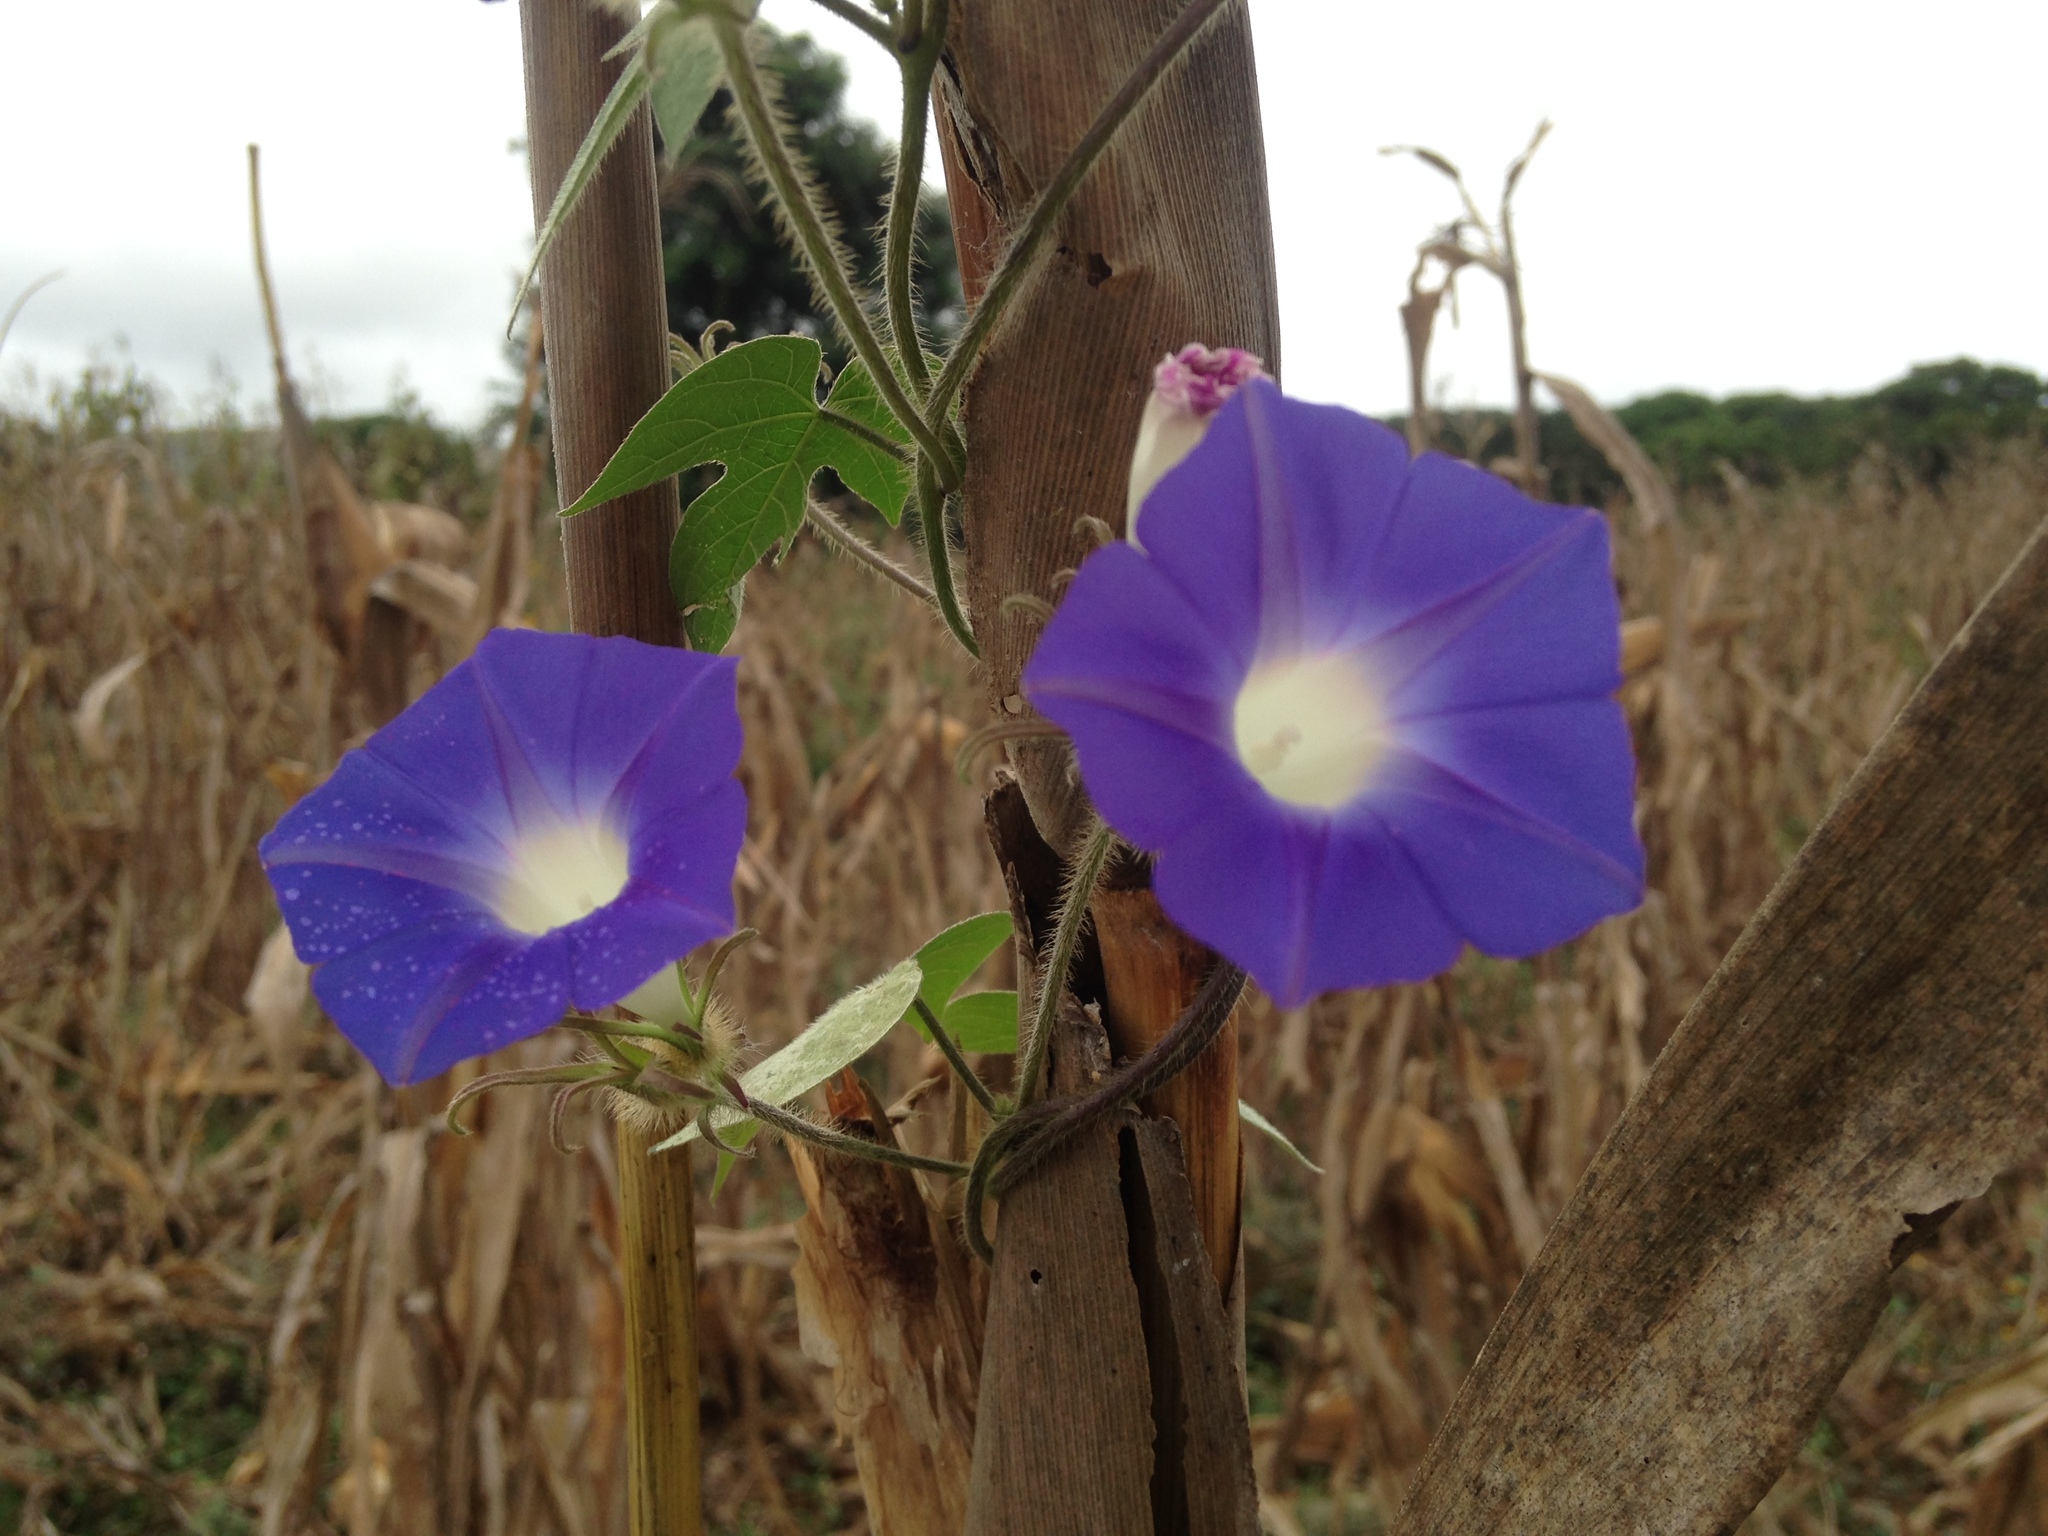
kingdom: Plantae
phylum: Tracheophyta
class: Magnoliopsida
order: Solanales
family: Convolvulaceae
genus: Ipomoea
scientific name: Ipomoea hederacea
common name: Ivy-leaved morning-glory
